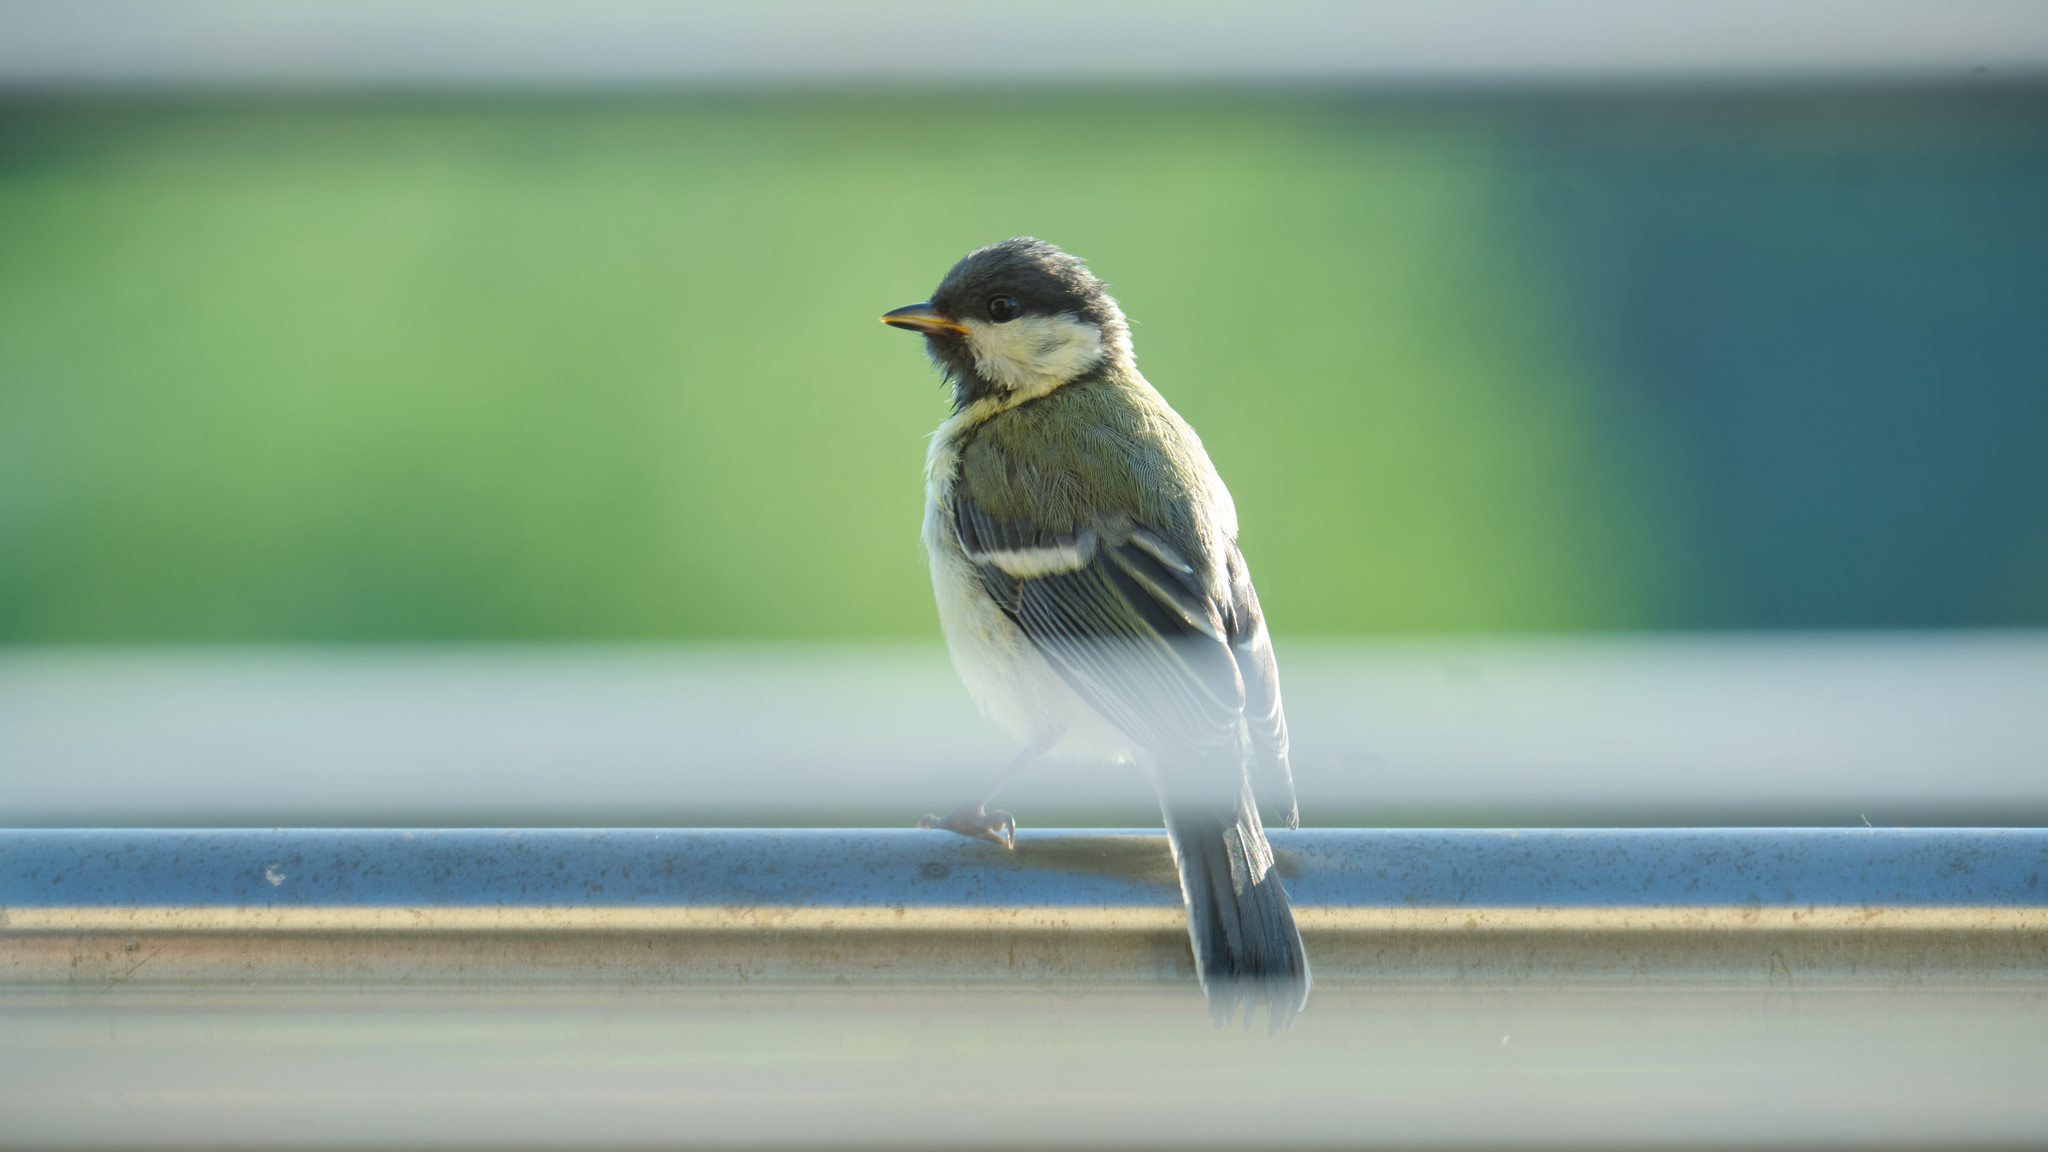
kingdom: Animalia
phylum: Chordata
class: Aves
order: Passeriformes
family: Paridae
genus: Parus
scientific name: Parus major
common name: Great tit
